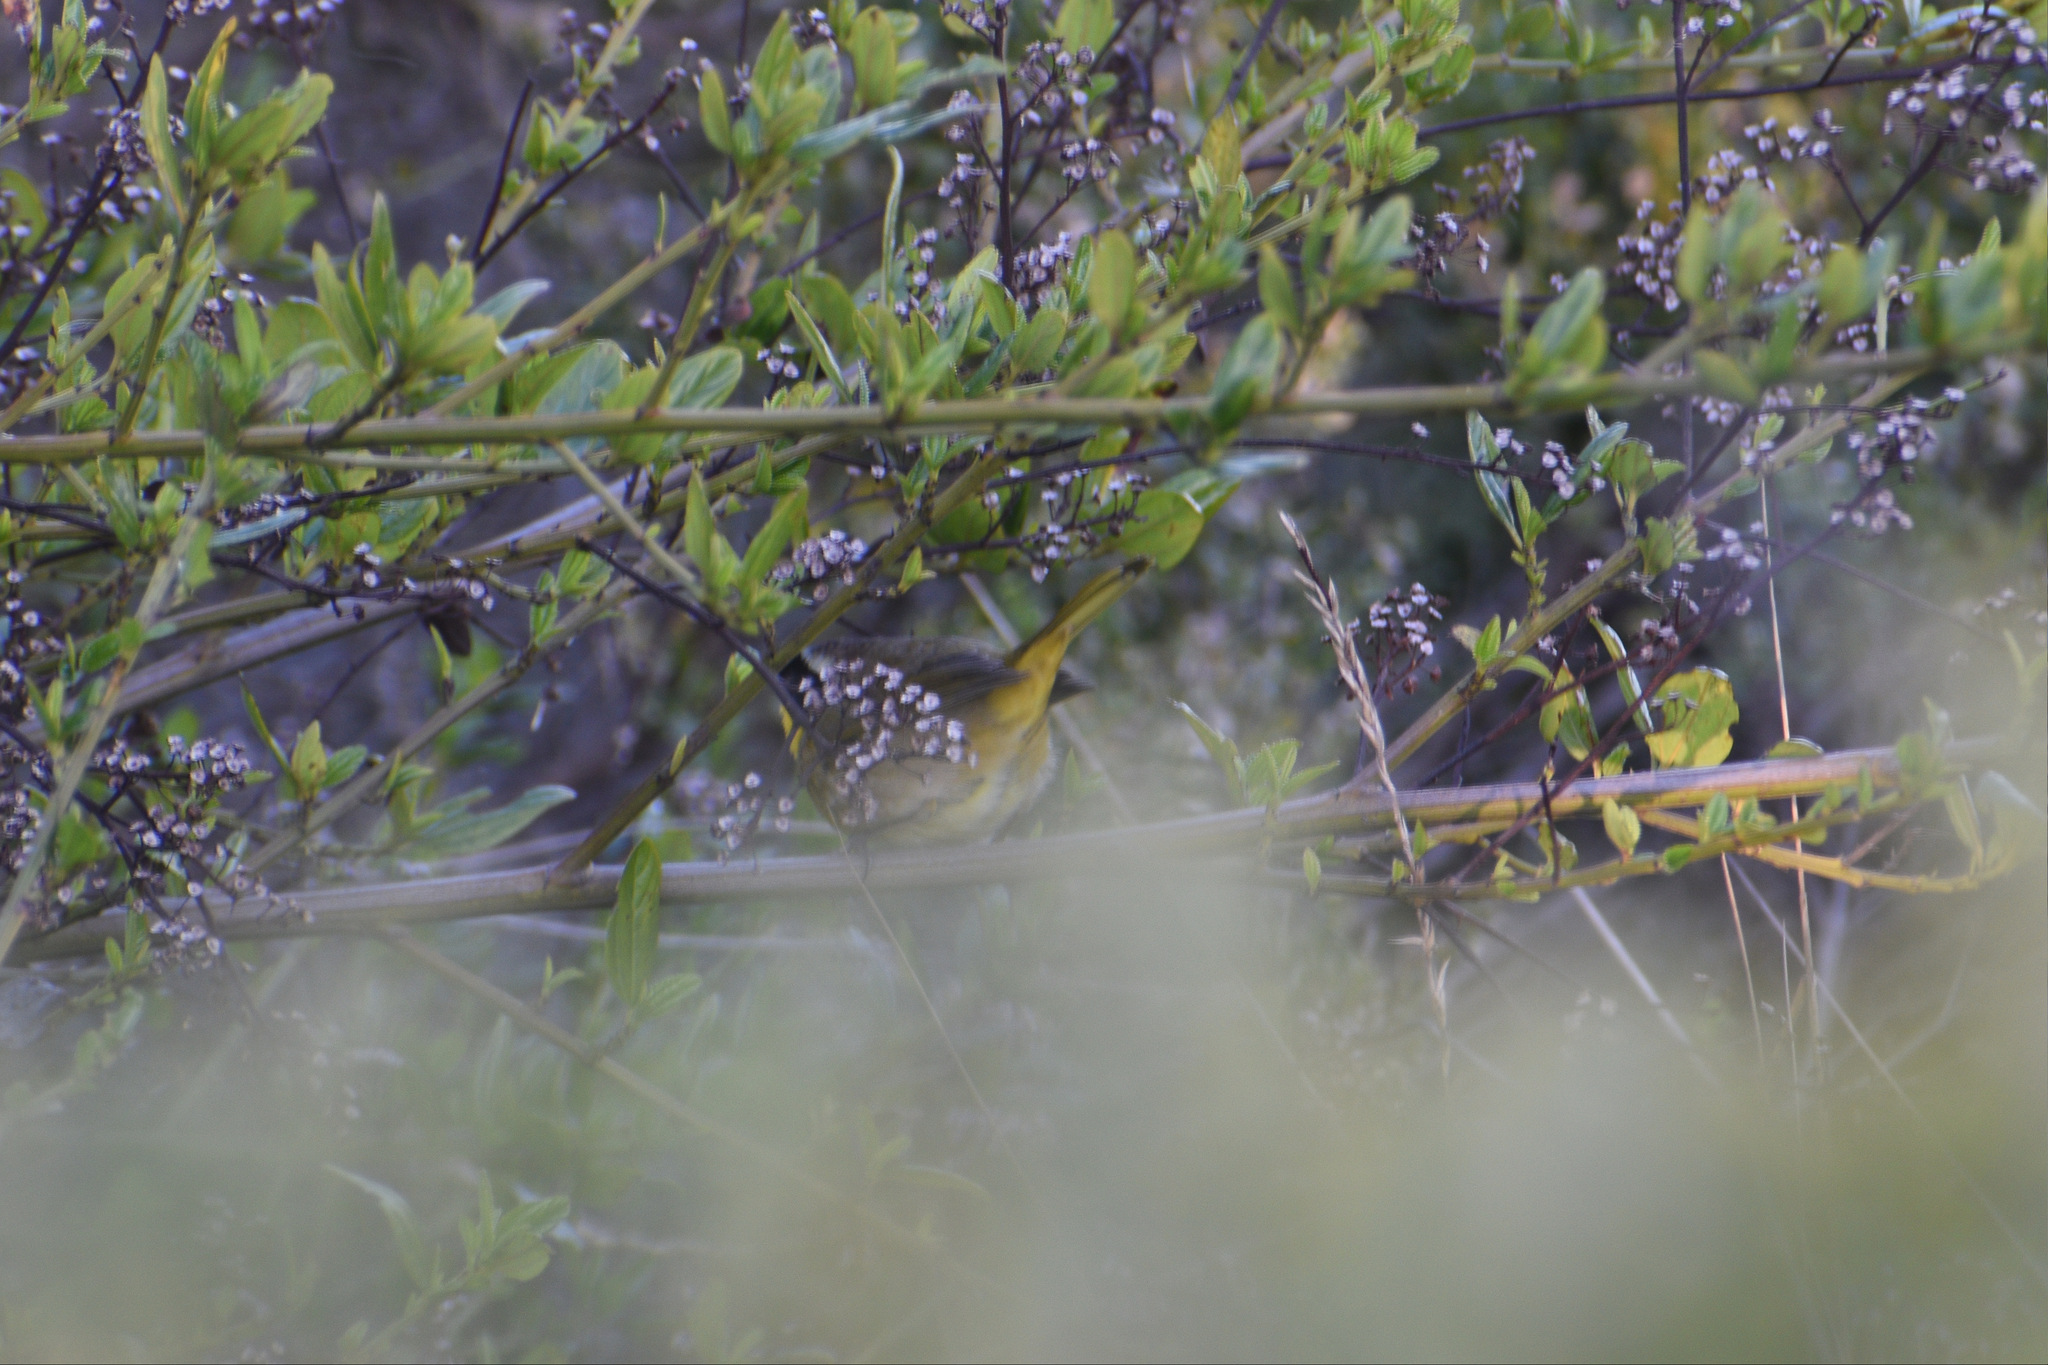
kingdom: Animalia
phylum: Chordata
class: Aves
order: Passeriformes
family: Parulidae
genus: Geothlypis
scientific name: Geothlypis trichas
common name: Common yellowthroat
